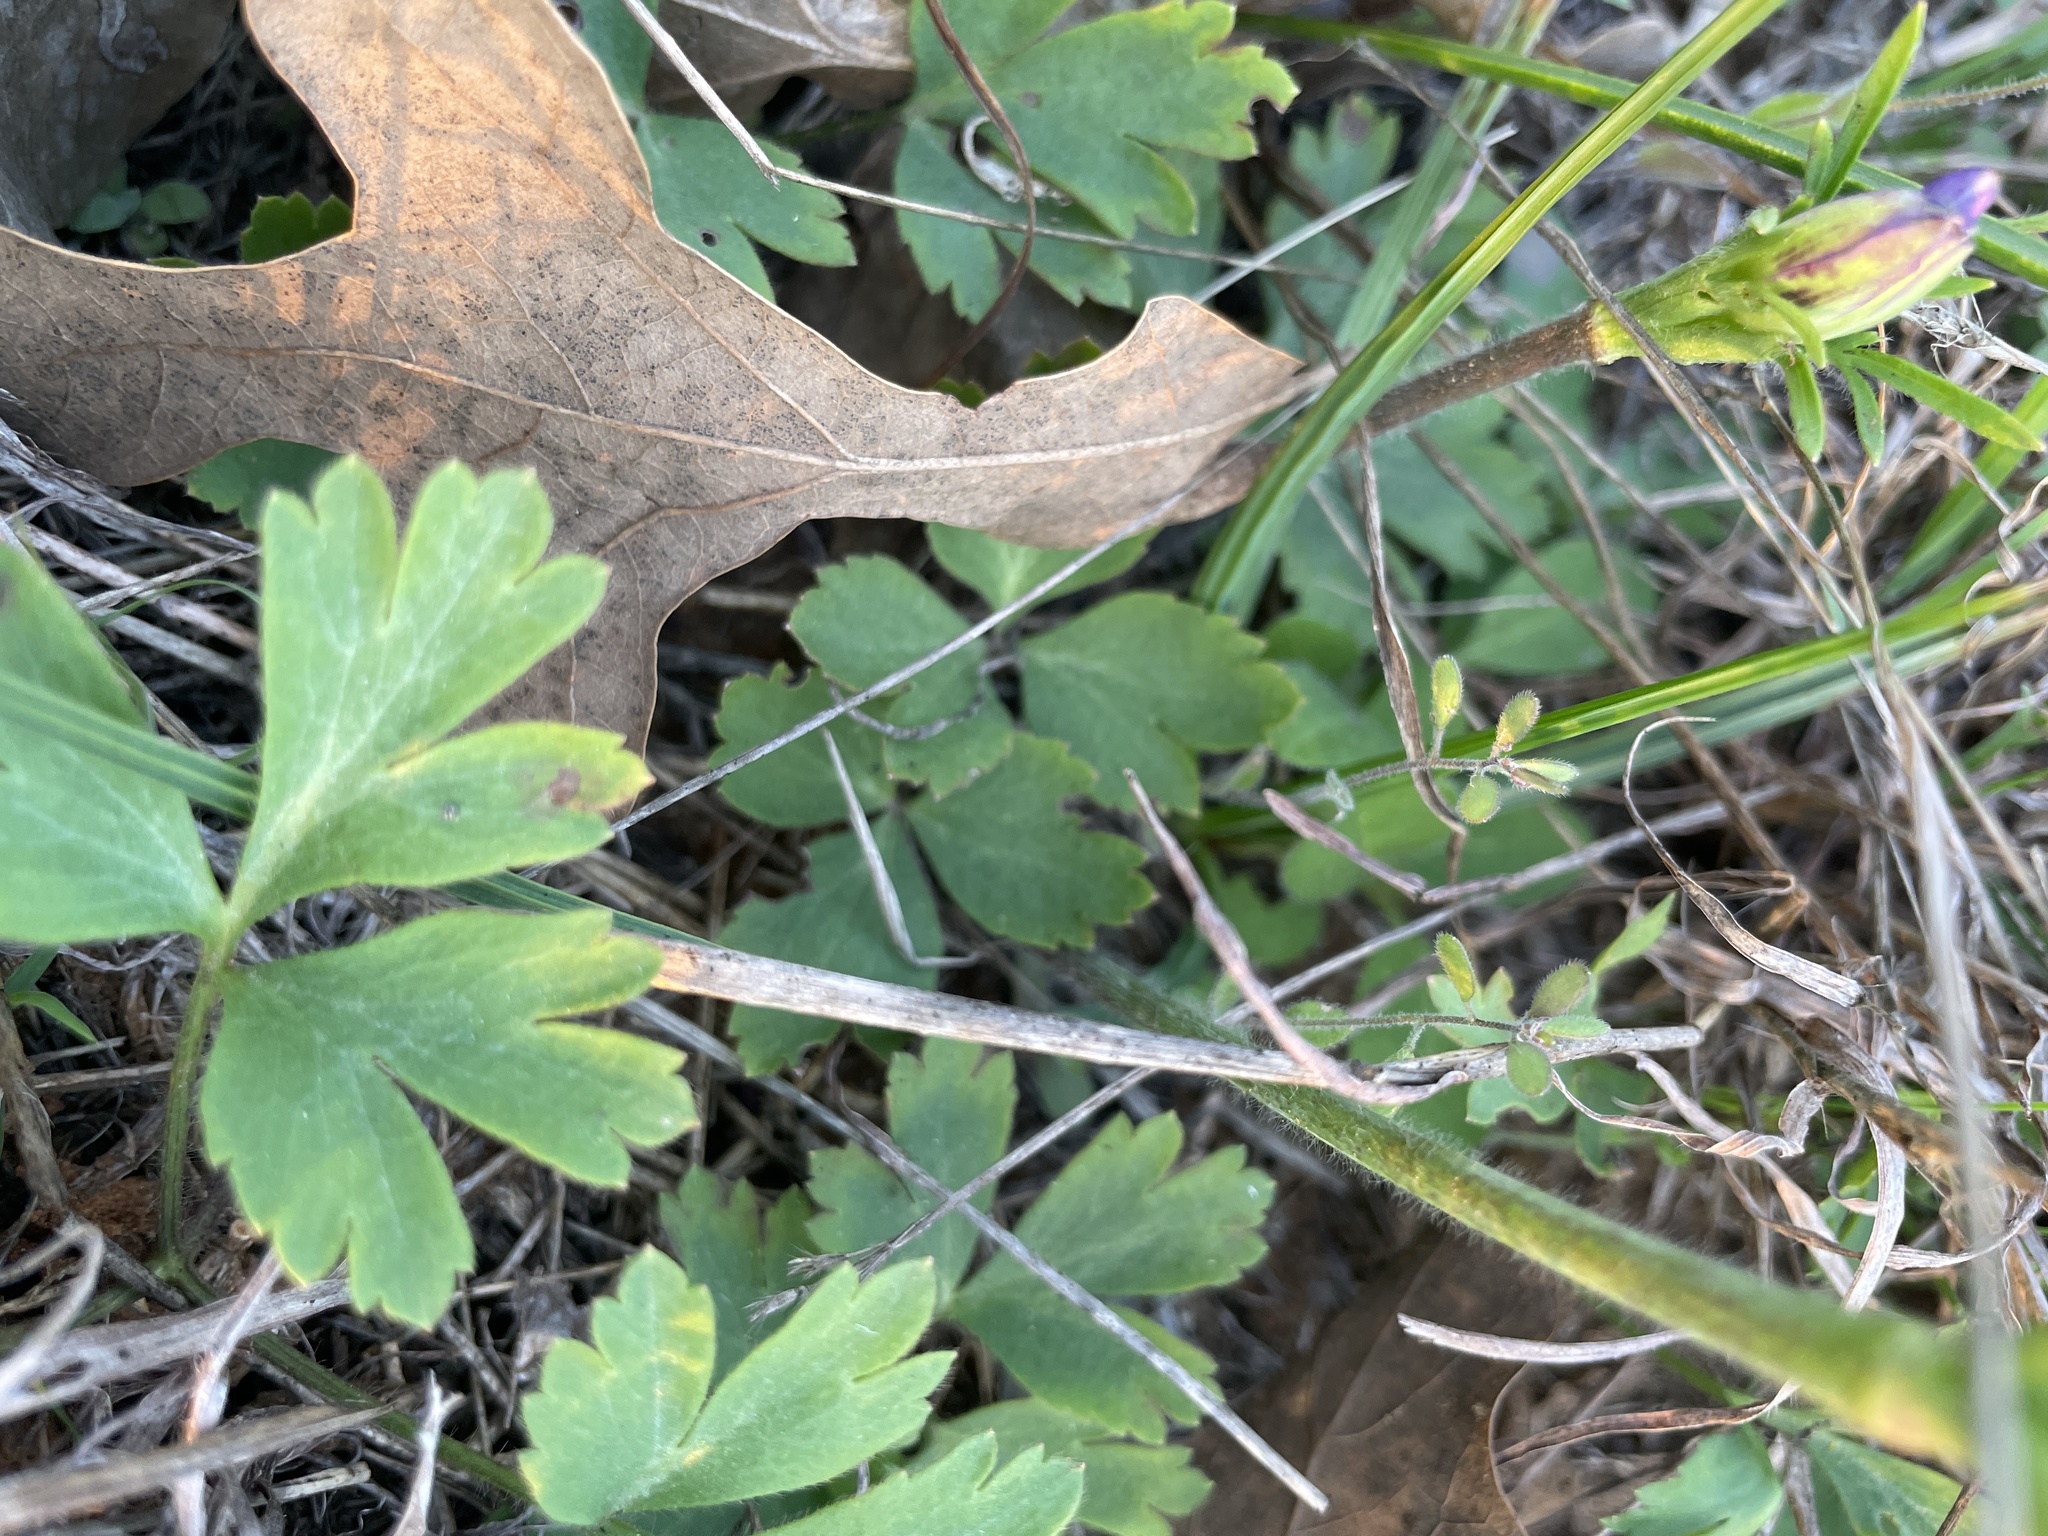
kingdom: Plantae
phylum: Tracheophyta
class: Magnoliopsida
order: Ranunculales
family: Ranunculaceae
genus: Anemone
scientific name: Anemone berlandieri
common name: Ten-petal anemone
